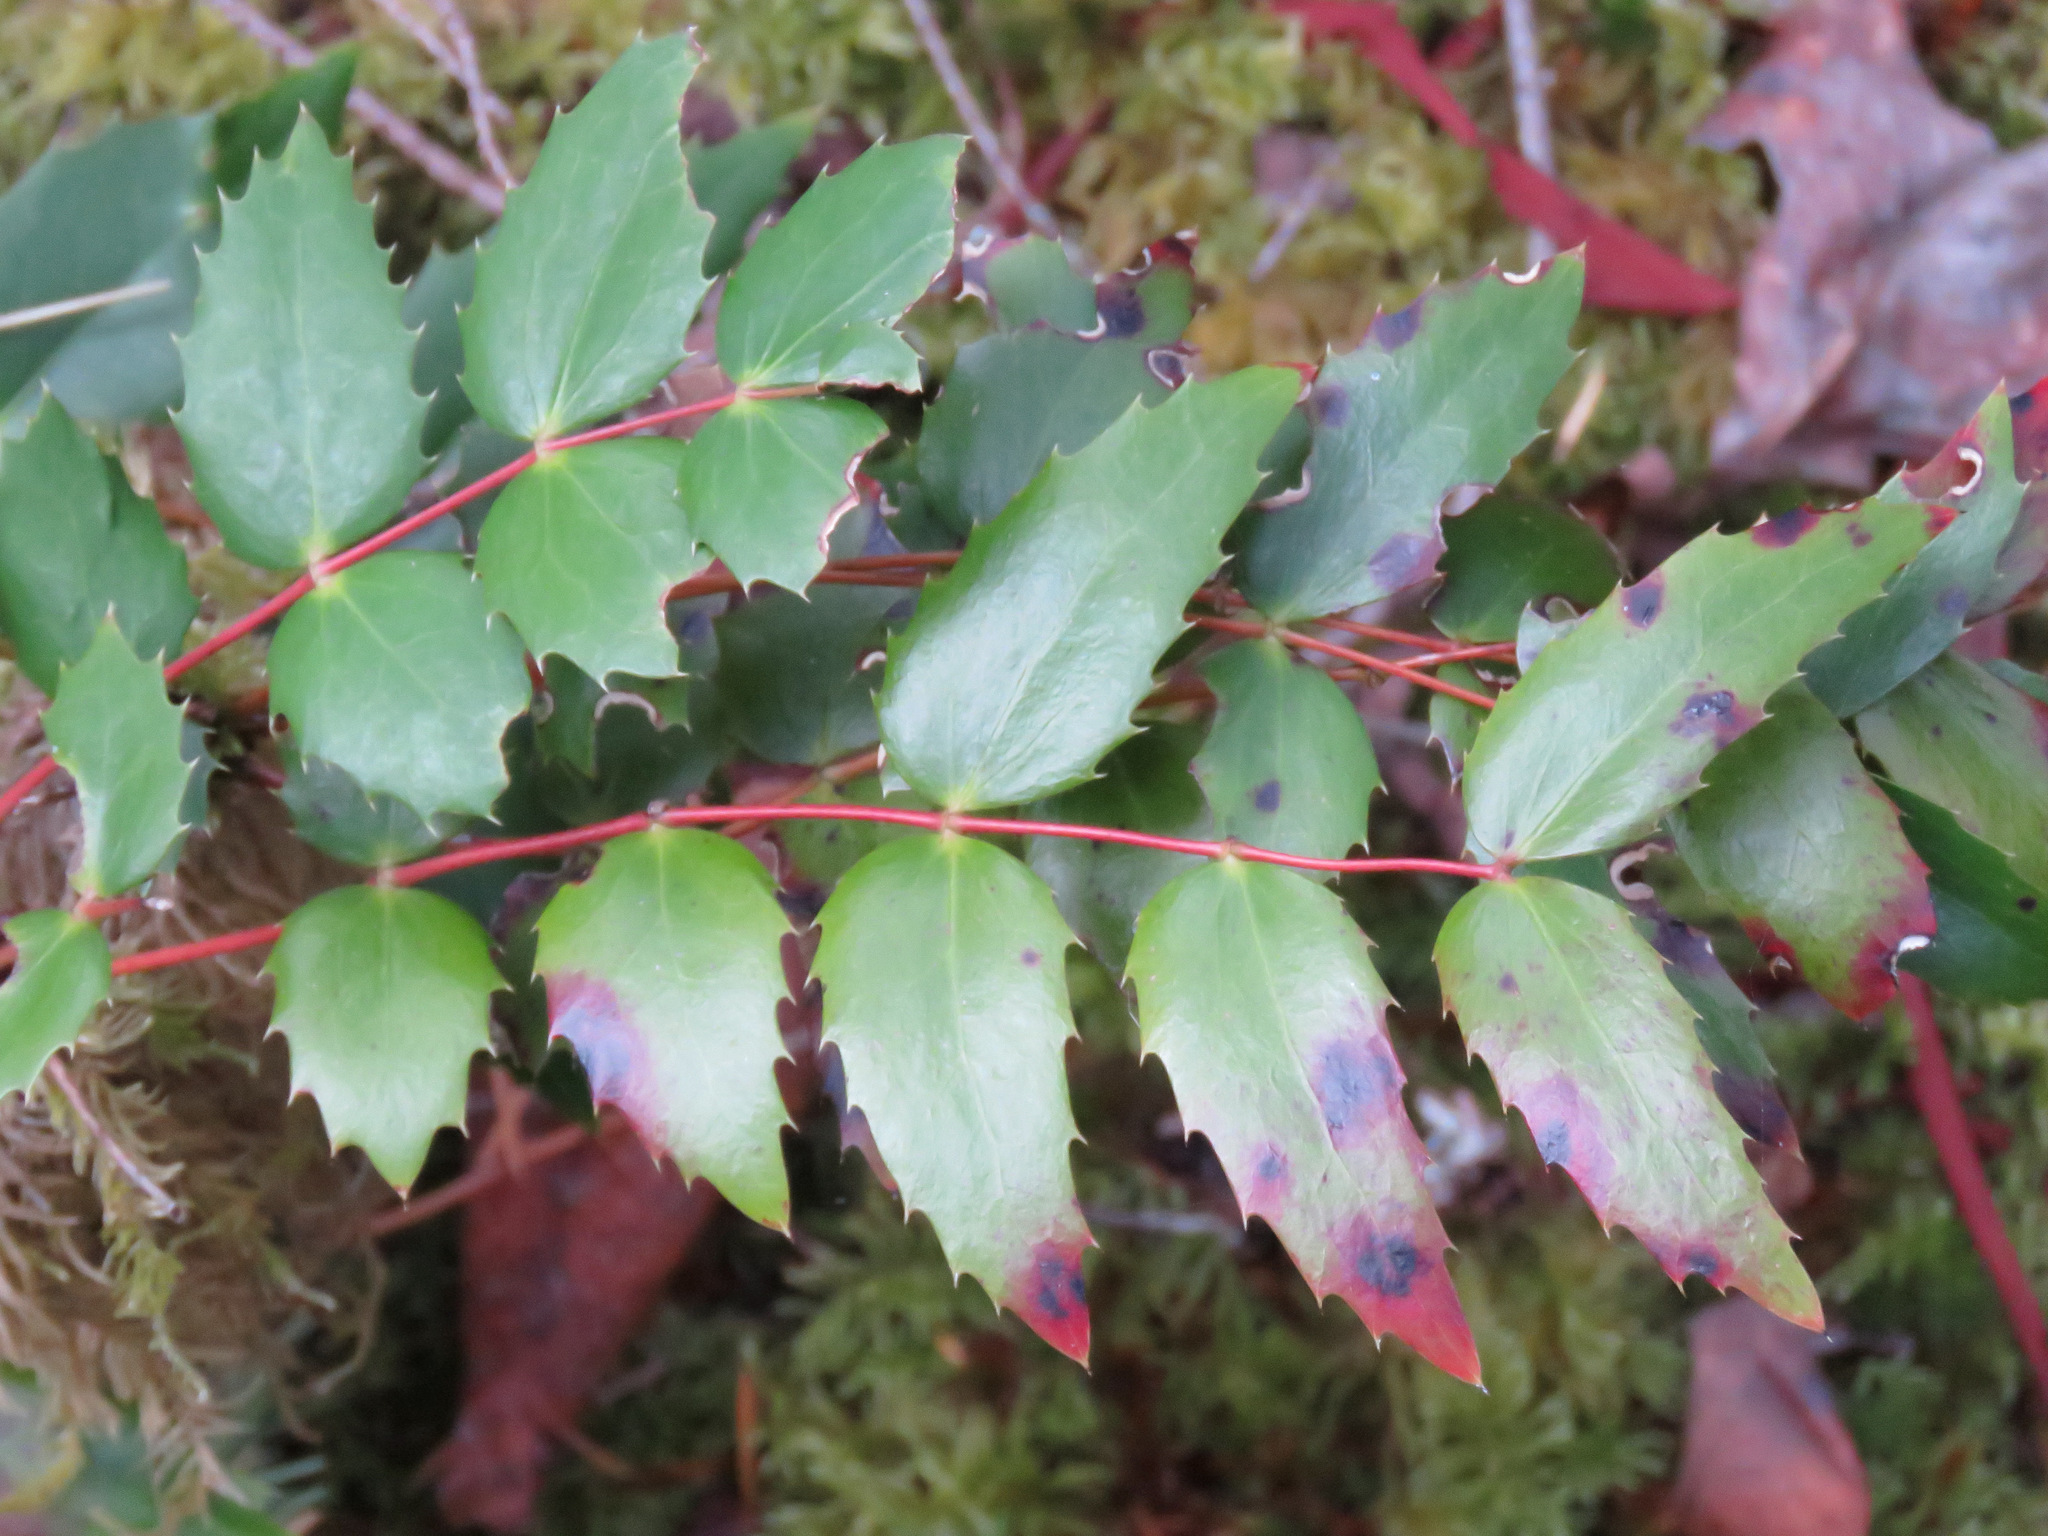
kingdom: Plantae
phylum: Tracheophyta
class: Magnoliopsida
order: Ranunculales
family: Berberidaceae
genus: Mahonia
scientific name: Mahonia nervosa
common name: Cascade oregon-grape
